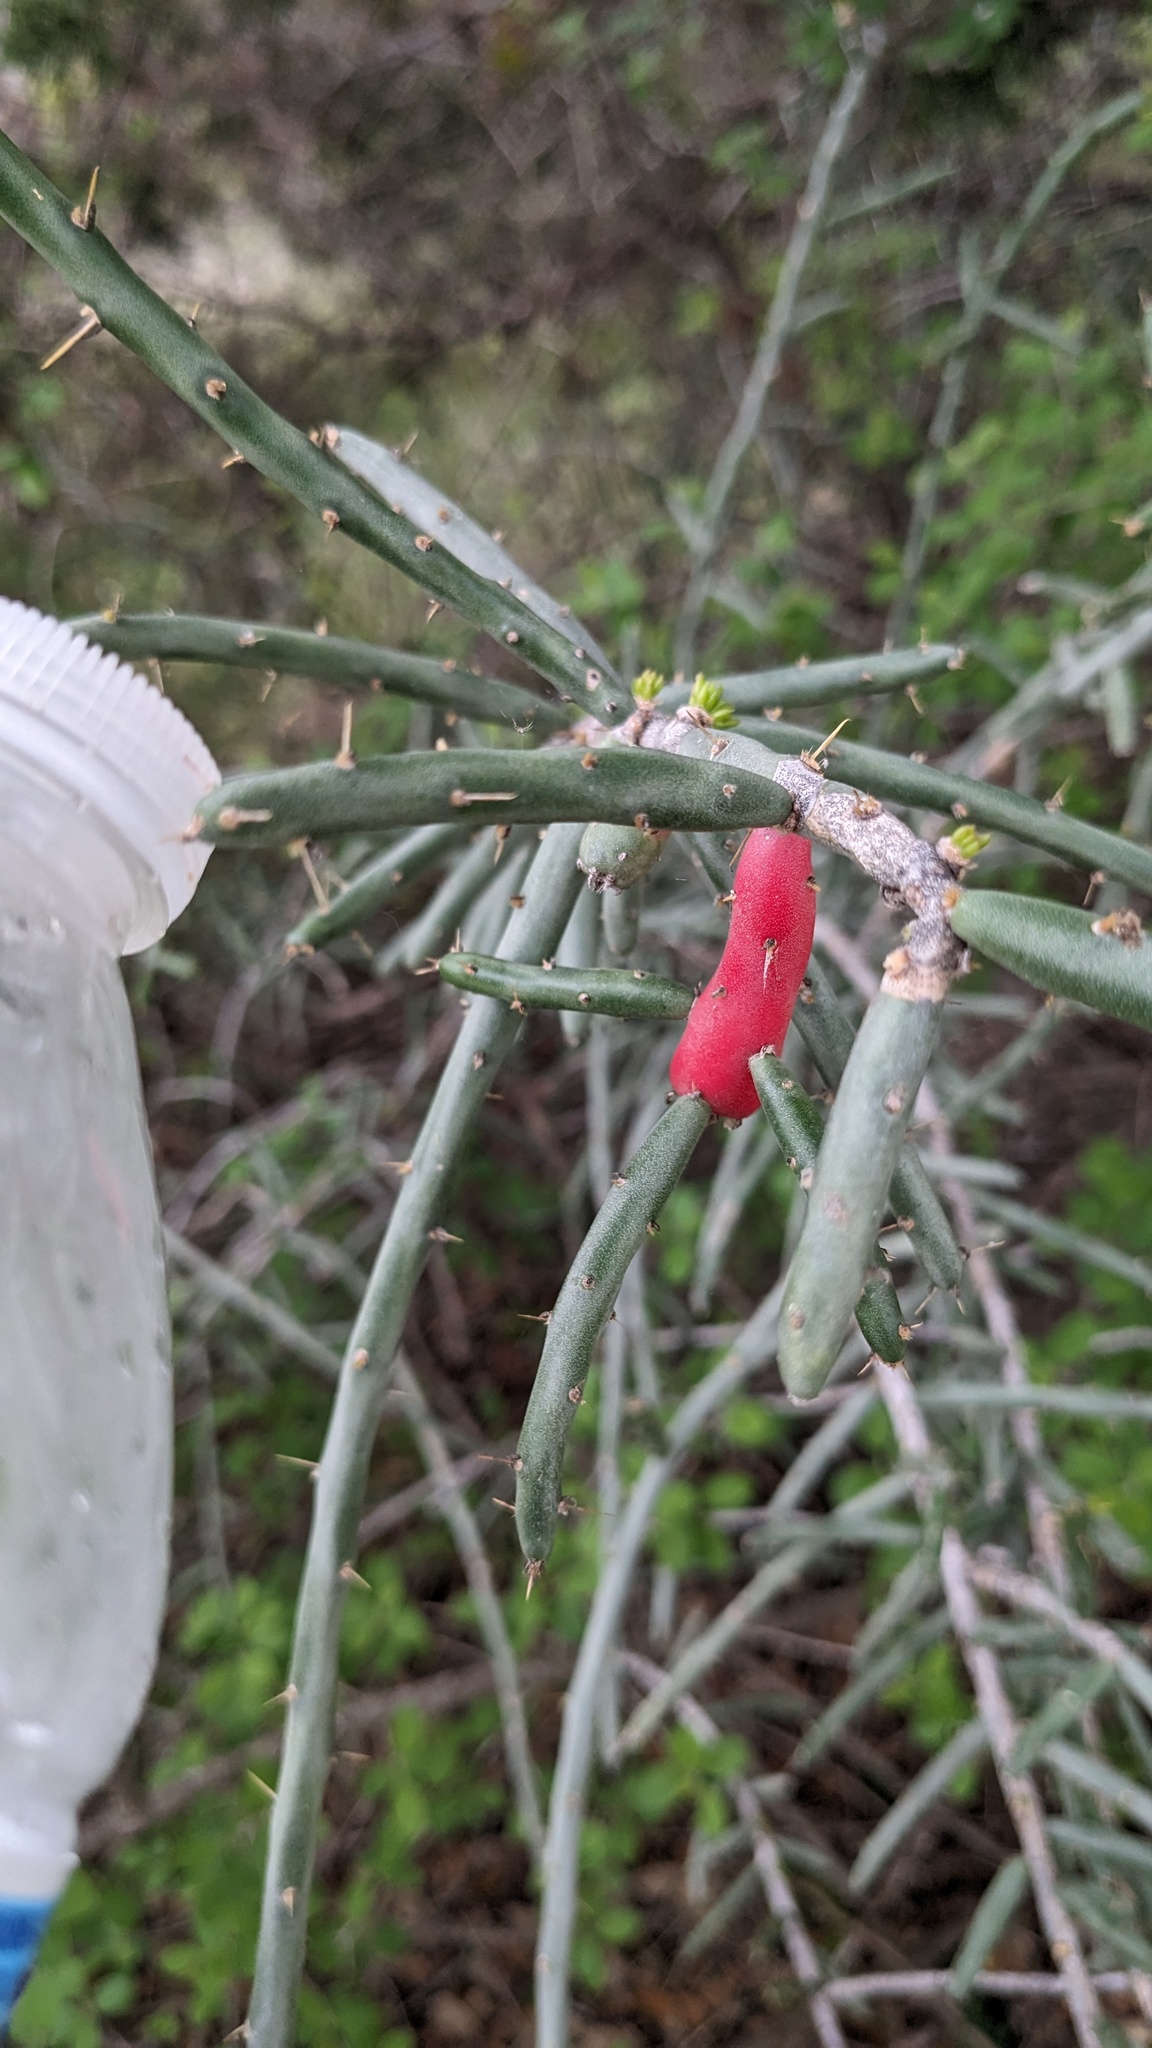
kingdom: Plantae
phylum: Tracheophyta
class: Magnoliopsida
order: Caryophyllales
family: Cactaceae
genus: Cylindropuntia
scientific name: Cylindropuntia leptocaulis
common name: Christmas cactus
